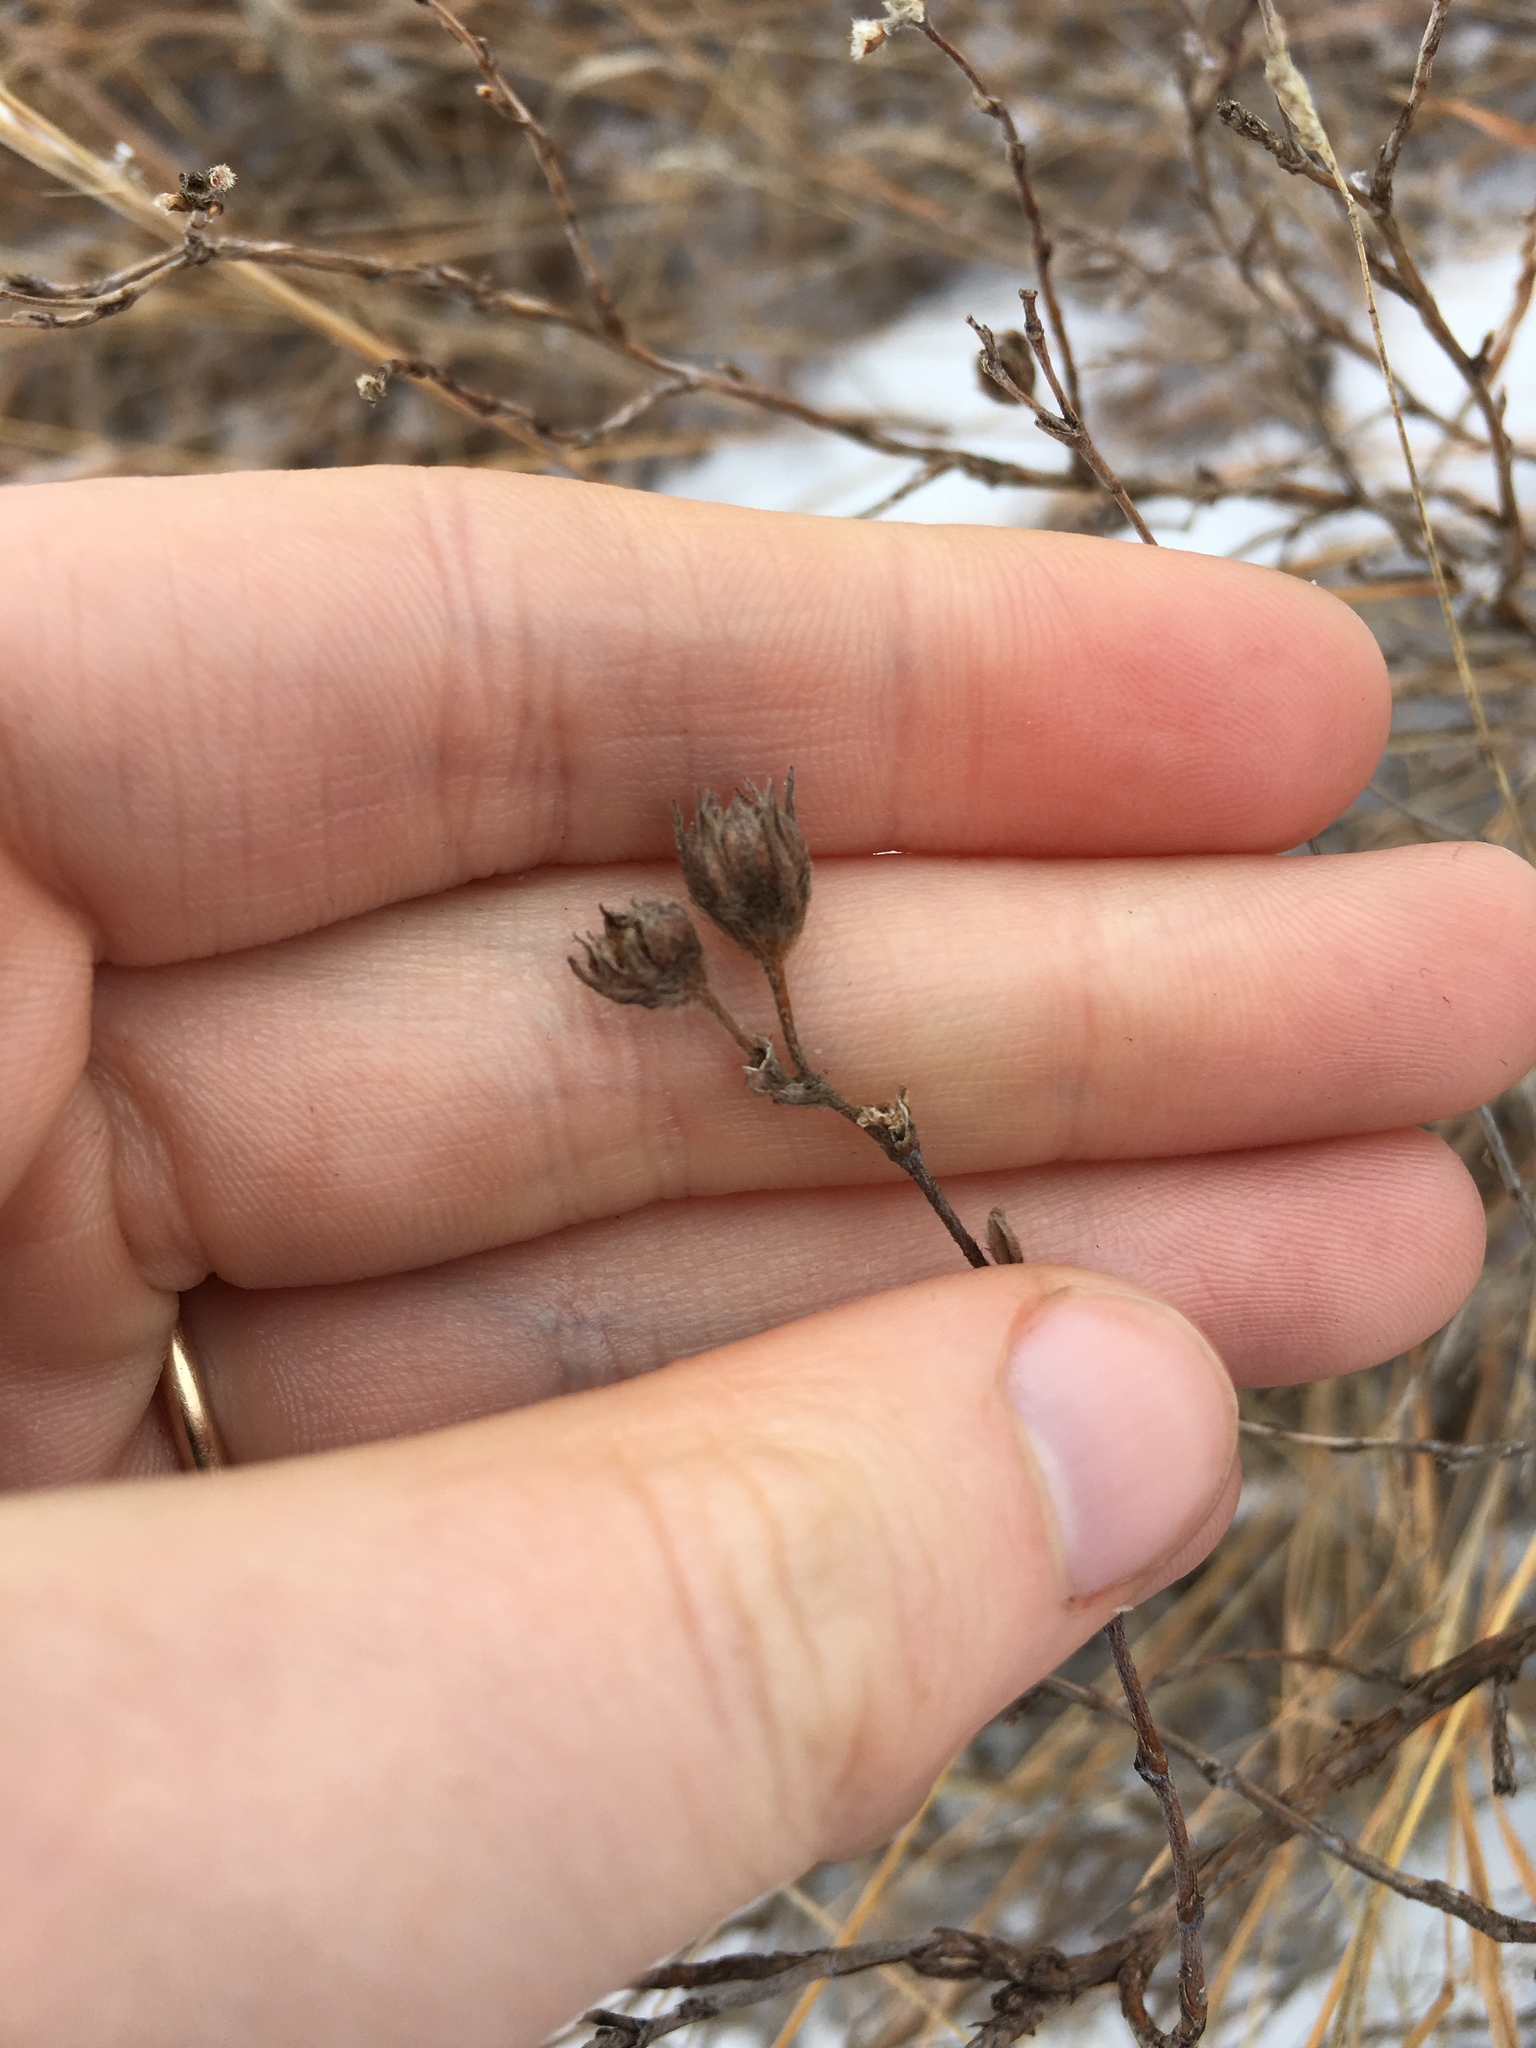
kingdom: Plantae
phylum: Tracheophyta
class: Magnoliopsida
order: Rosales
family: Rosaceae
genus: Dasiphora
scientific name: Dasiphora fruticosa
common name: Shrubby cinquefoil
